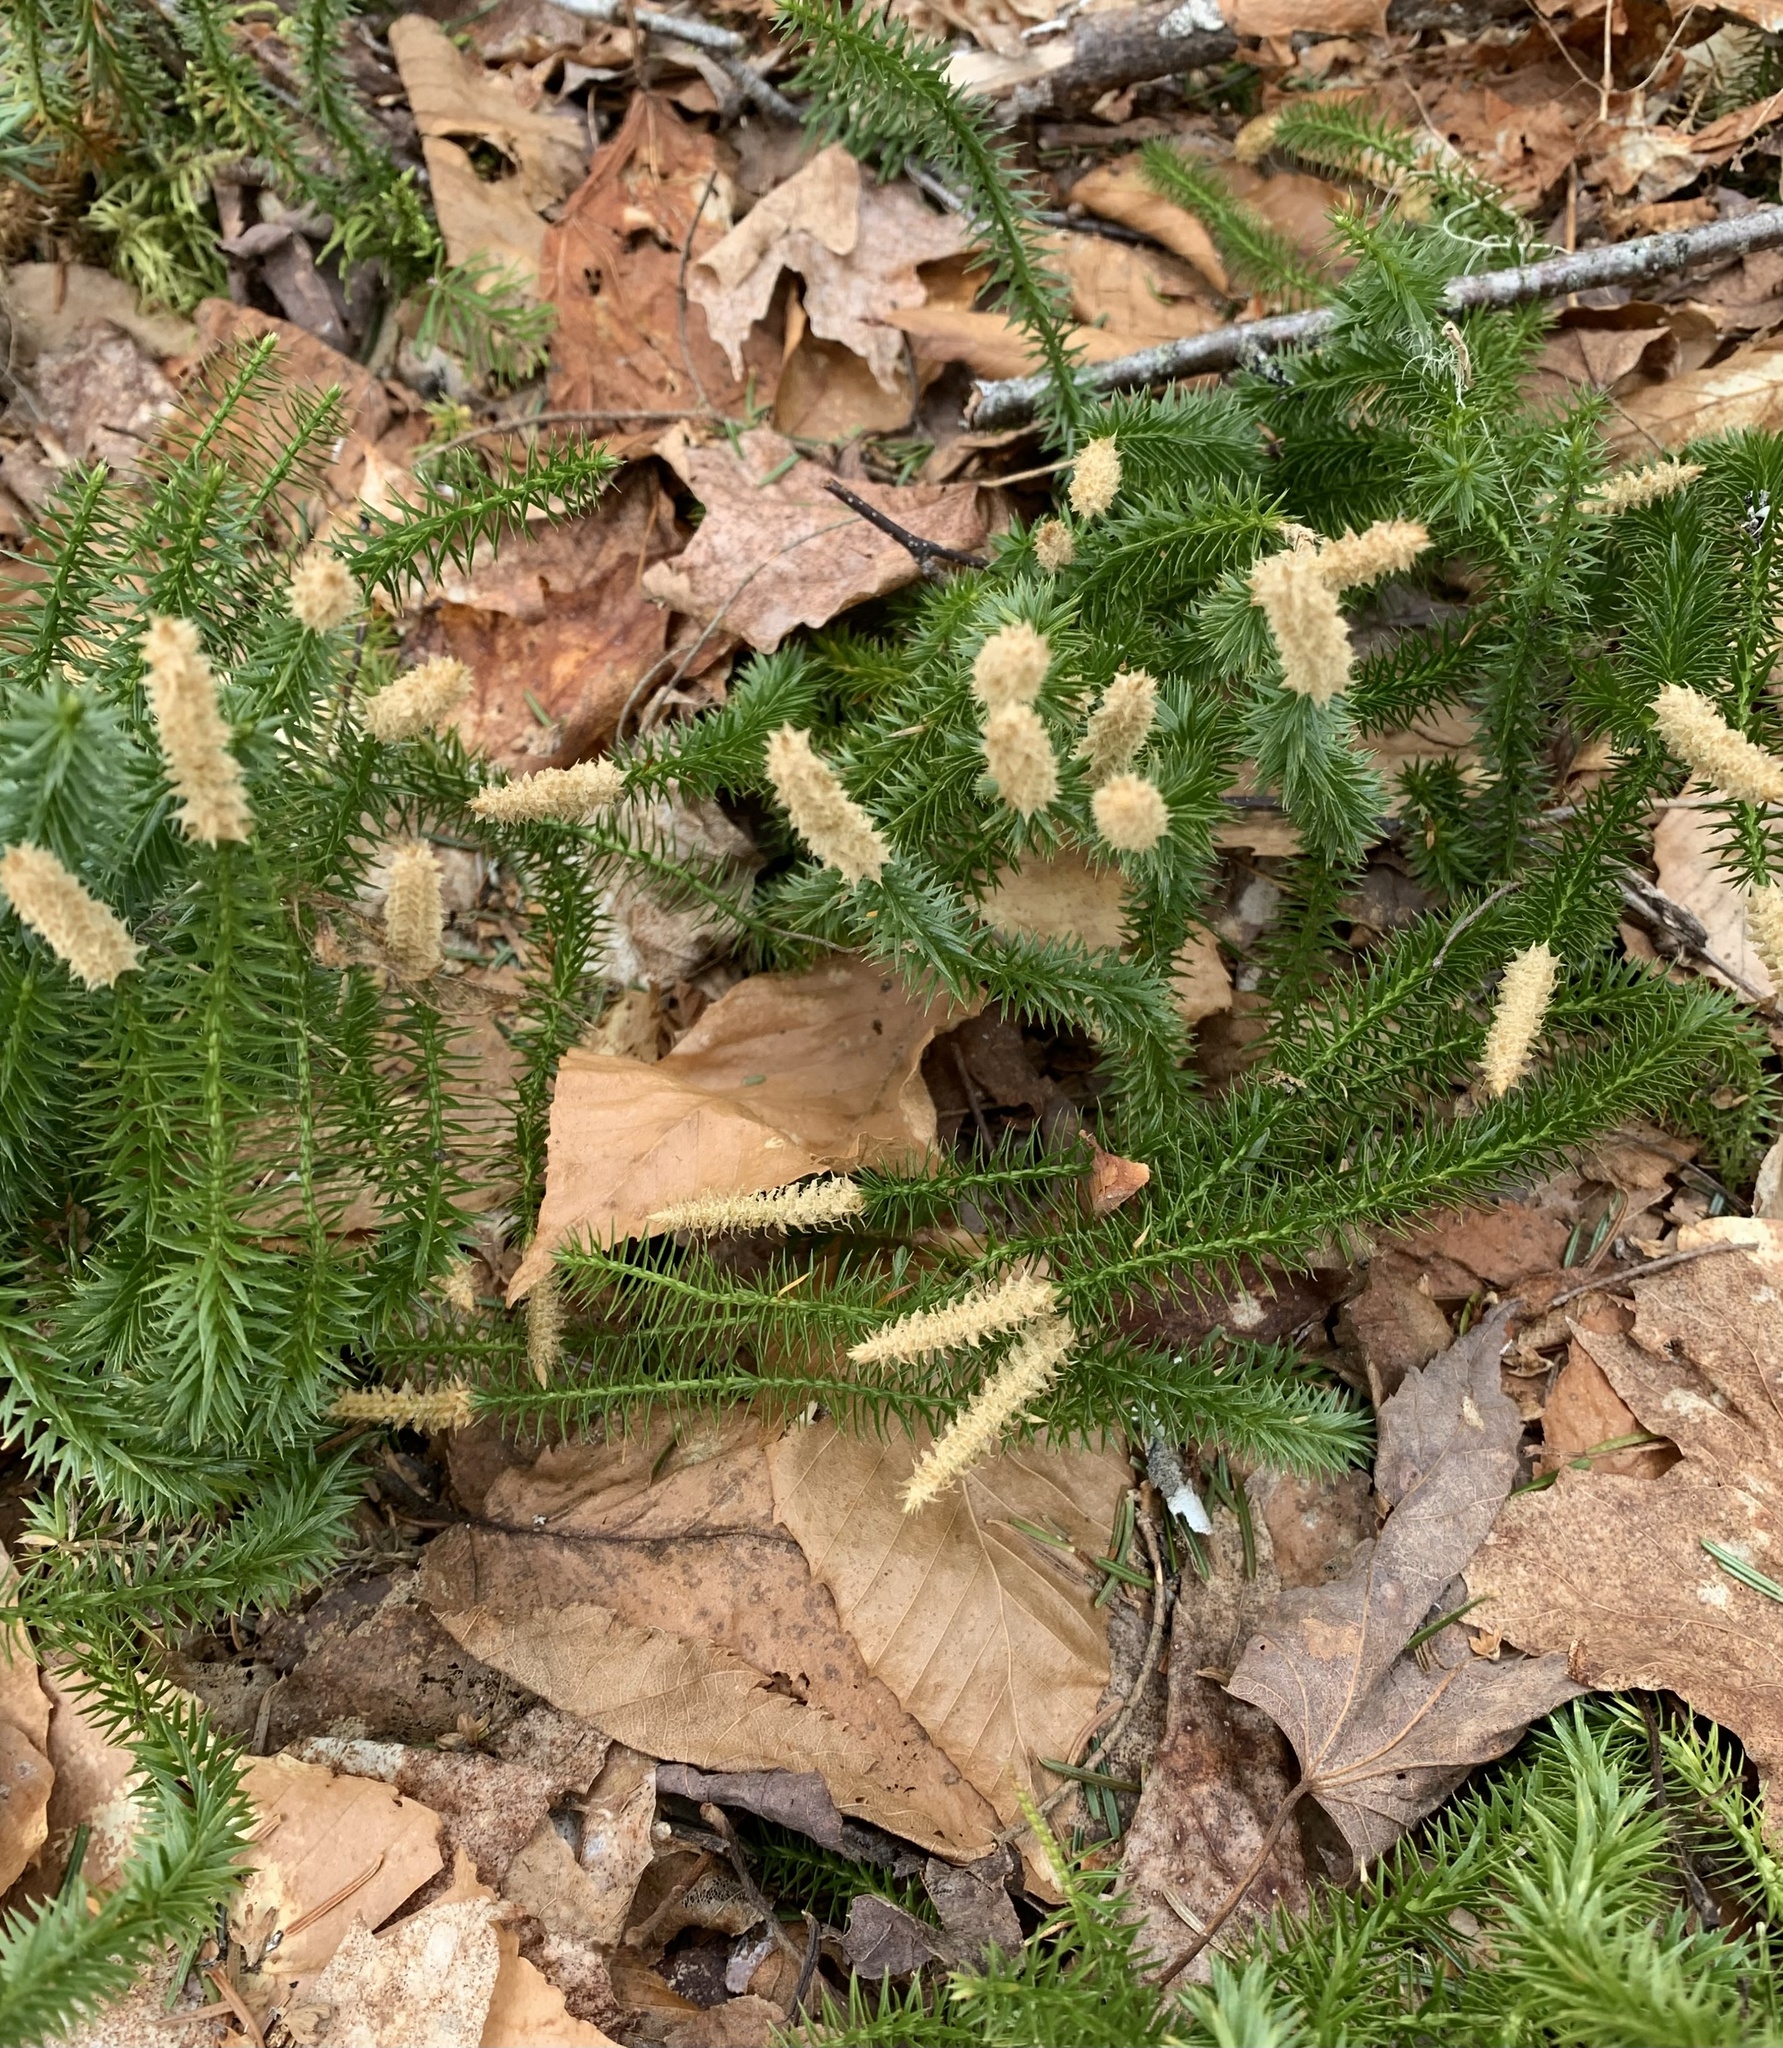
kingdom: Plantae
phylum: Tracheophyta
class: Lycopodiopsida
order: Lycopodiales
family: Lycopodiaceae
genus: Spinulum
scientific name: Spinulum annotinum
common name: Interrupted club-moss
